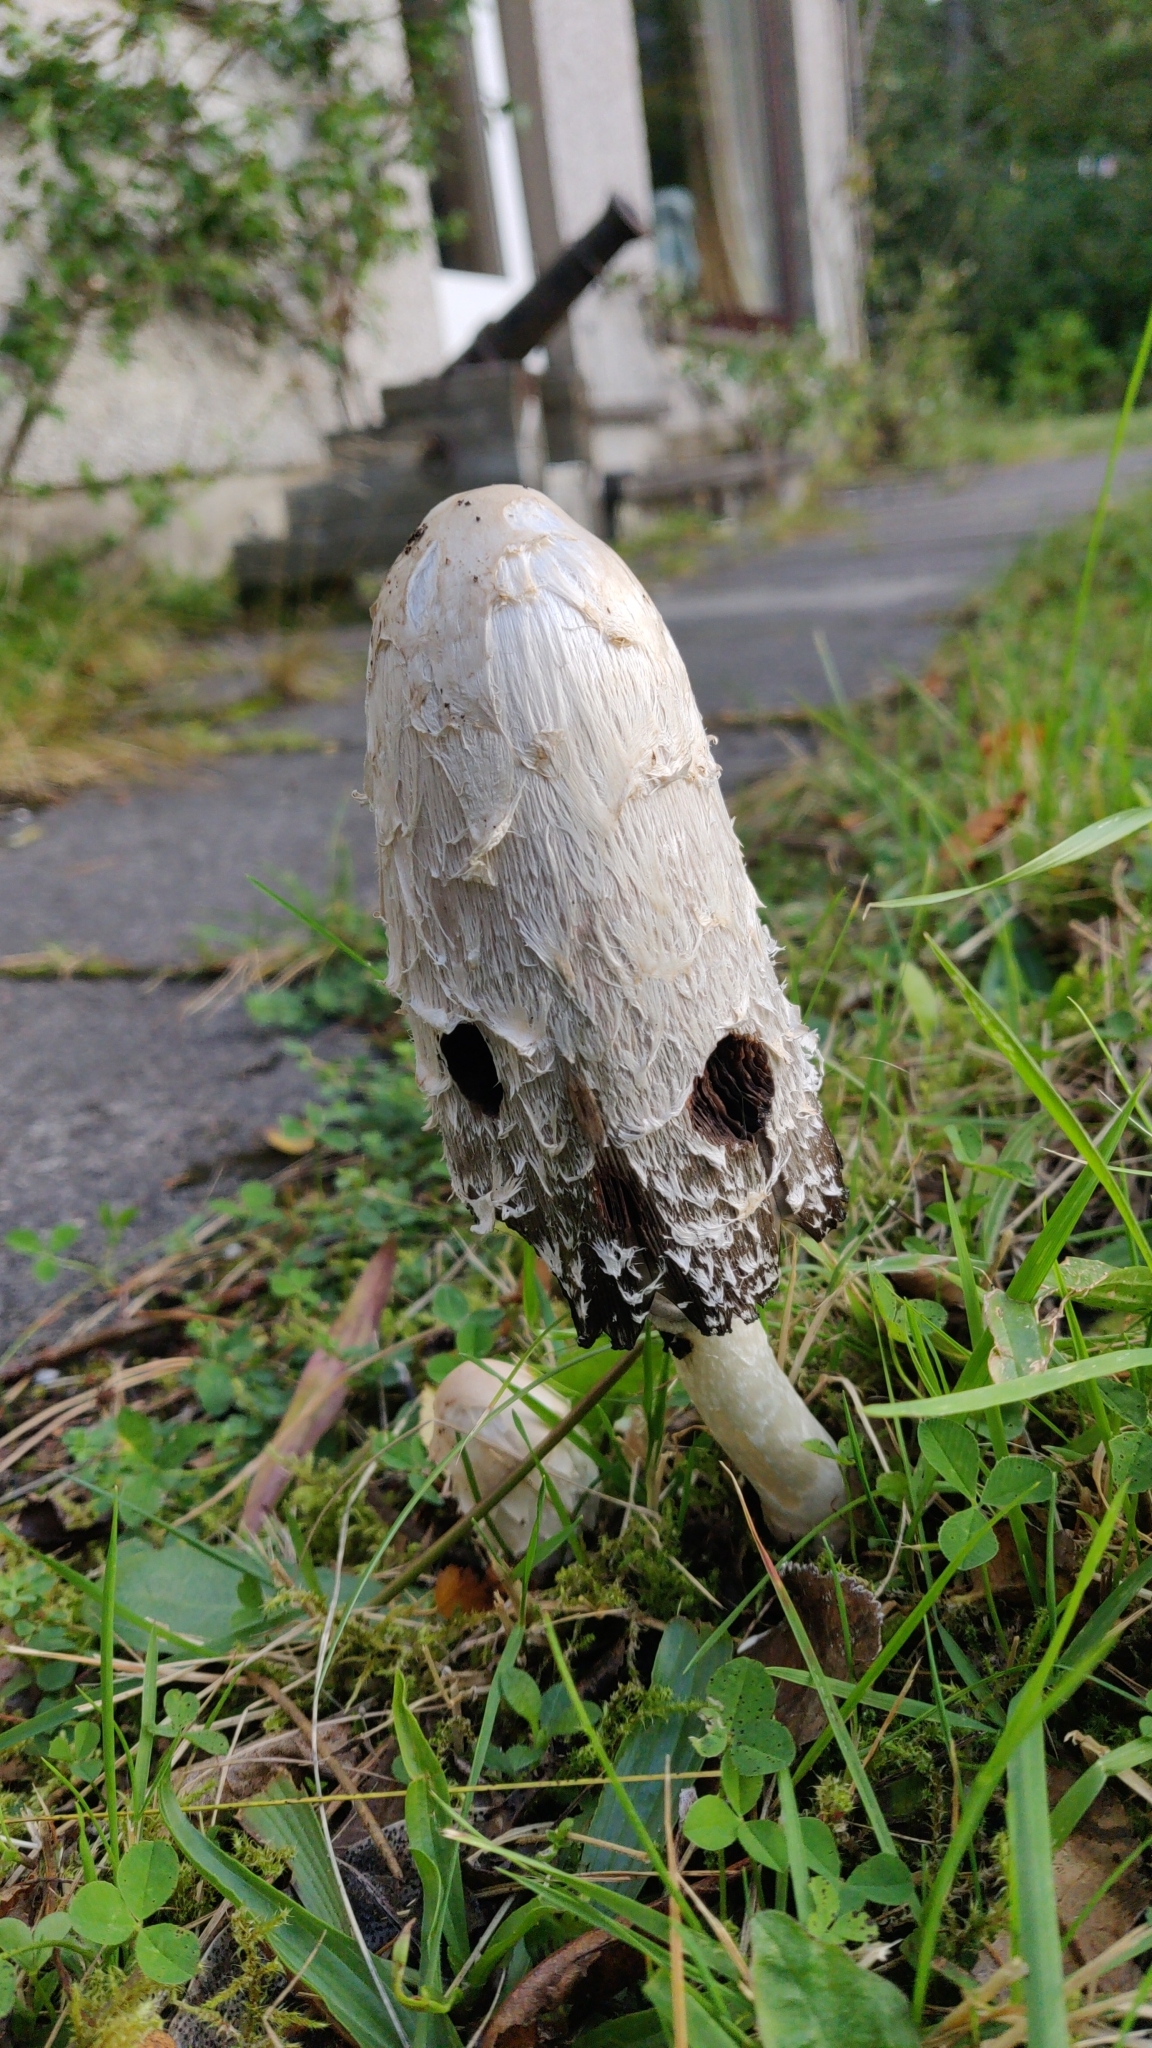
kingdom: Fungi
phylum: Basidiomycota
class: Agaricomycetes
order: Agaricales
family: Agaricaceae
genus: Coprinus
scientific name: Coprinus comatus
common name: Lawyer's wig
